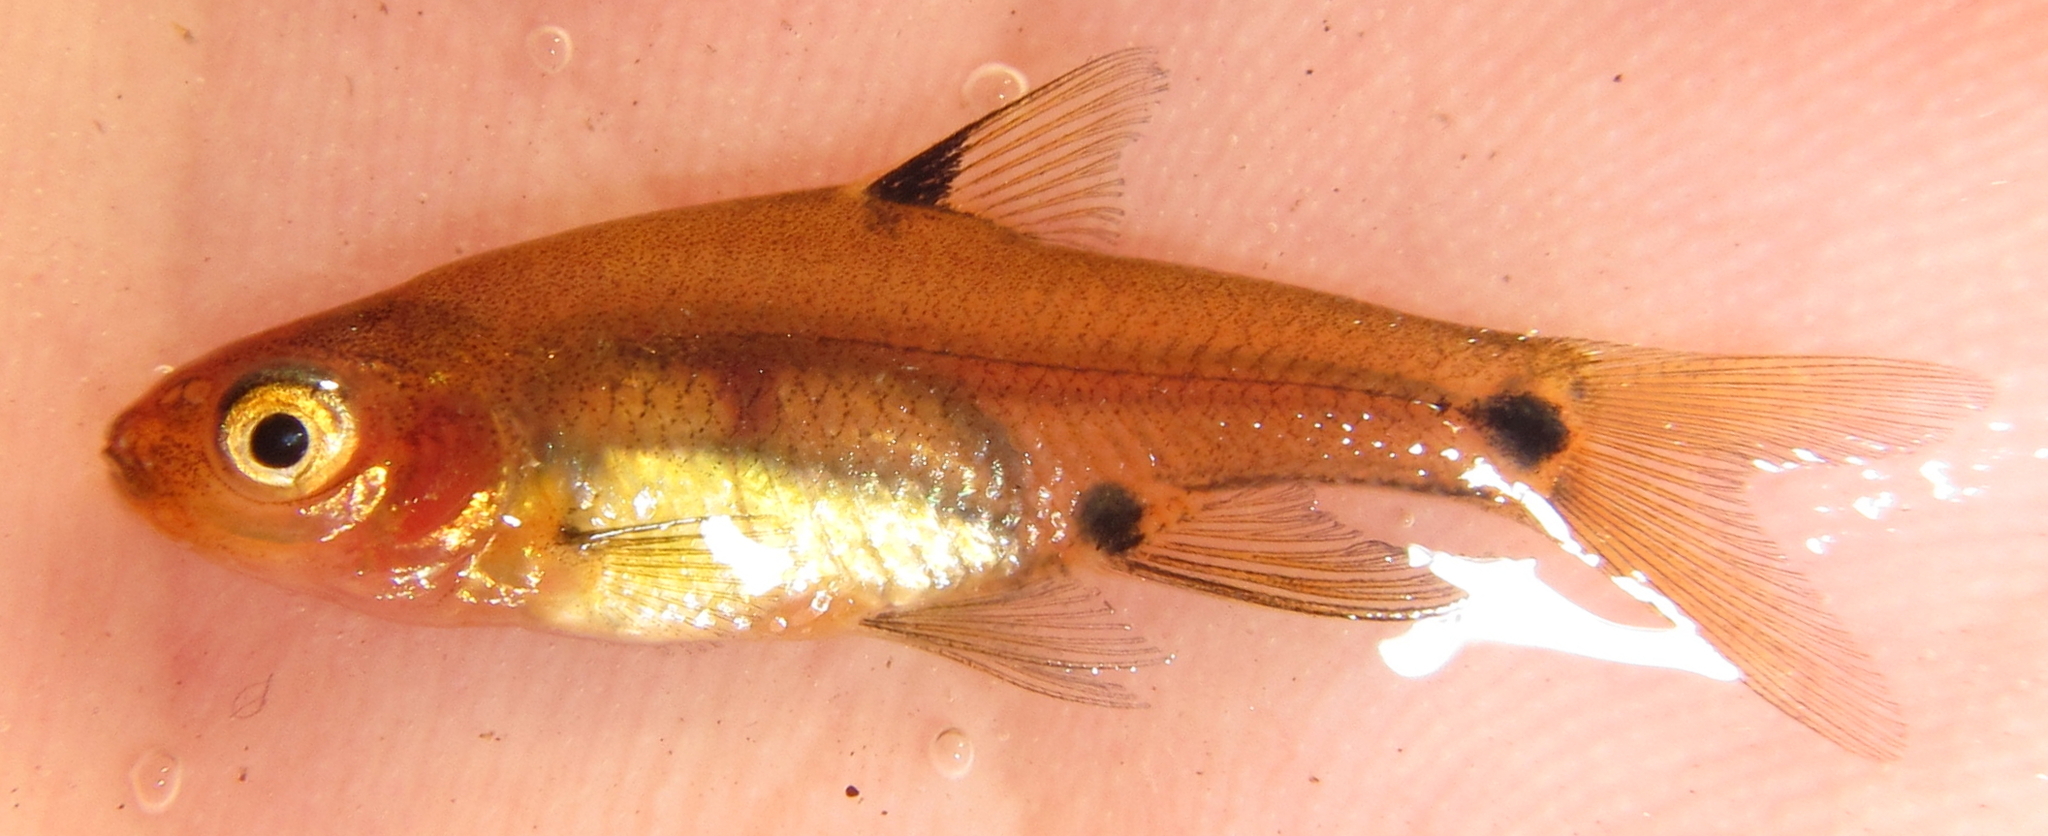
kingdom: Animalia
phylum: Chordata
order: Cypriniformes
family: Cyprinidae
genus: Enteromius
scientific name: Enteromius haasianus
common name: Sickle-fin barb
